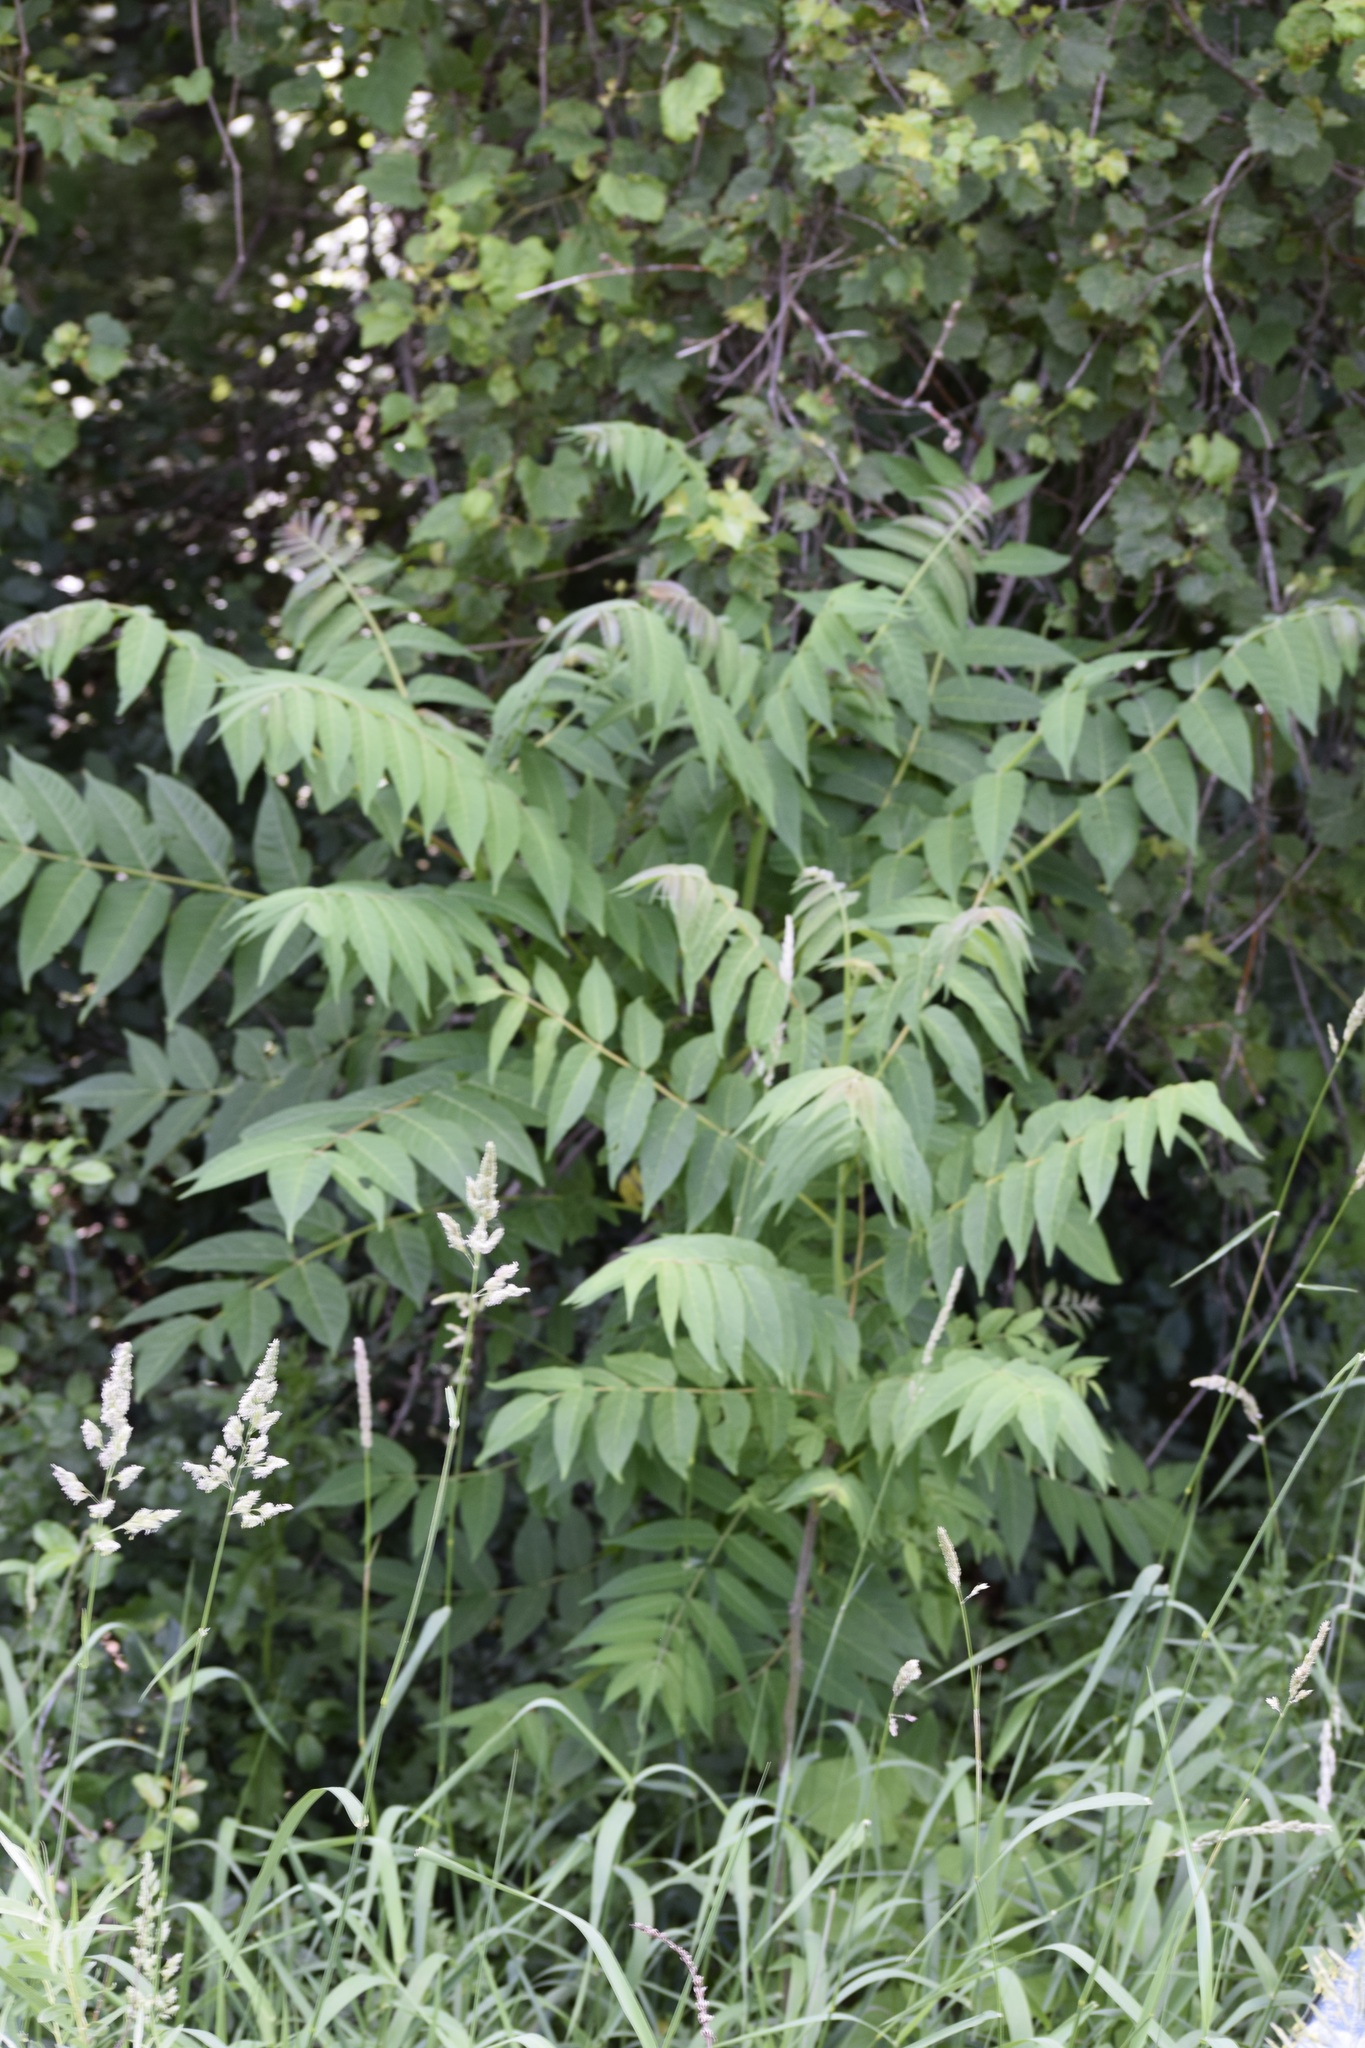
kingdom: Plantae
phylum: Tracheophyta
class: Magnoliopsida
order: Sapindales
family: Simaroubaceae
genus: Ailanthus
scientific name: Ailanthus altissima
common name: Tree-of-heaven
